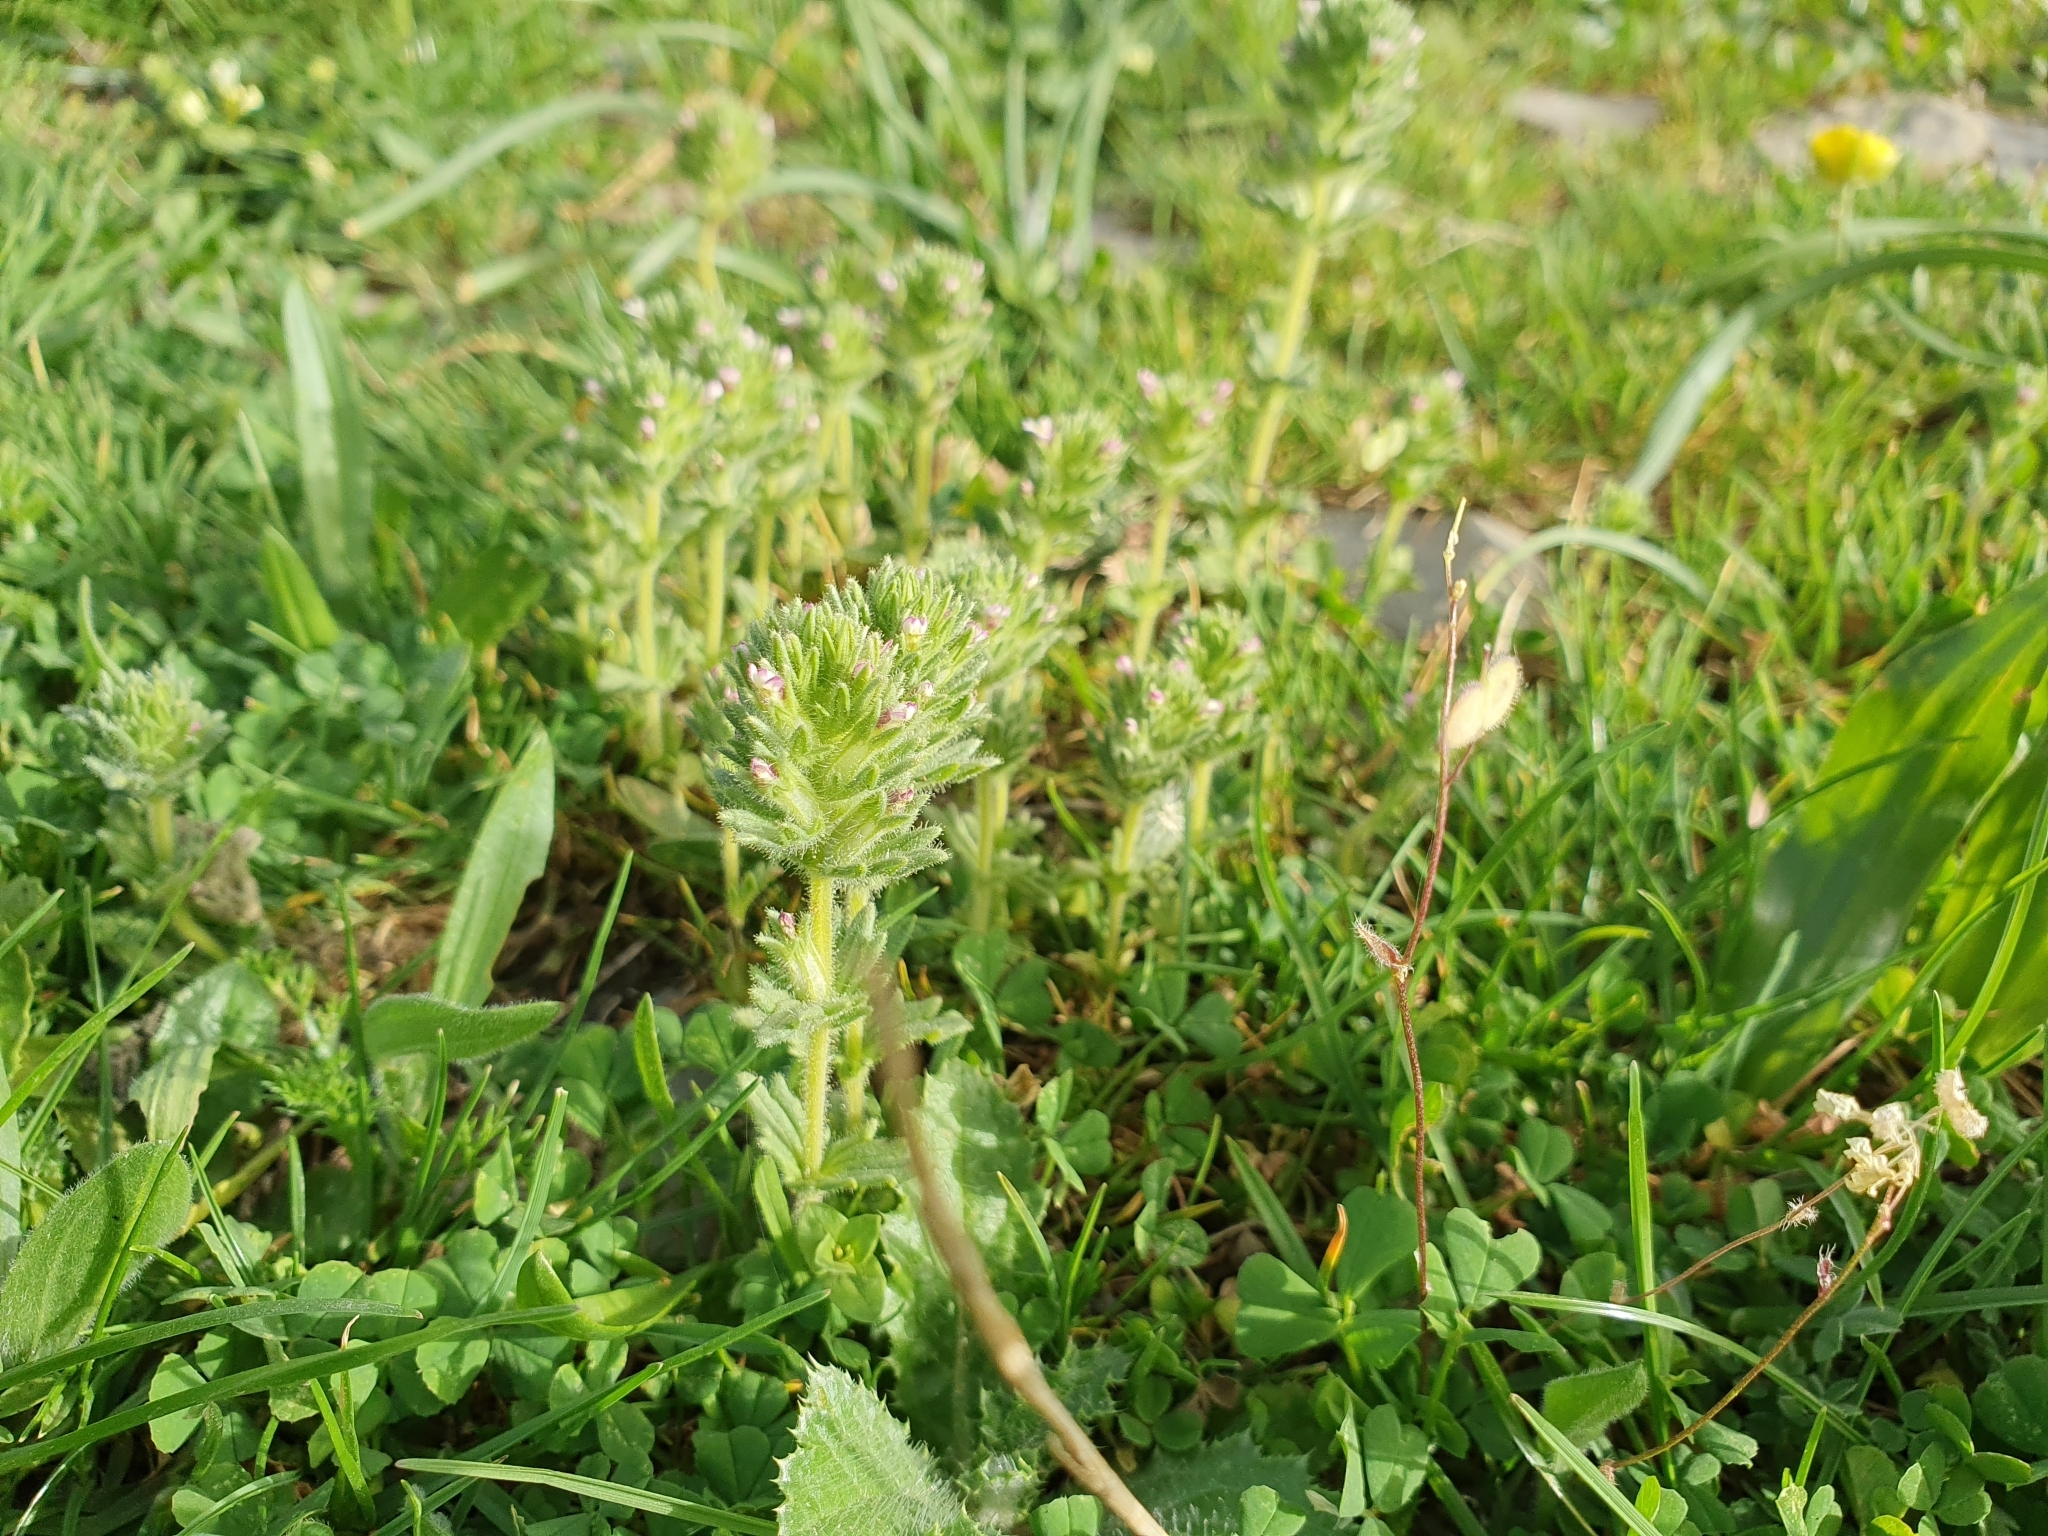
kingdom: Plantae
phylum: Tracheophyta
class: Magnoliopsida
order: Lamiales
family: Orobanchaceae
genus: Parentucellia
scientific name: Parentucellia latifolia
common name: Broadleaf glandweed
